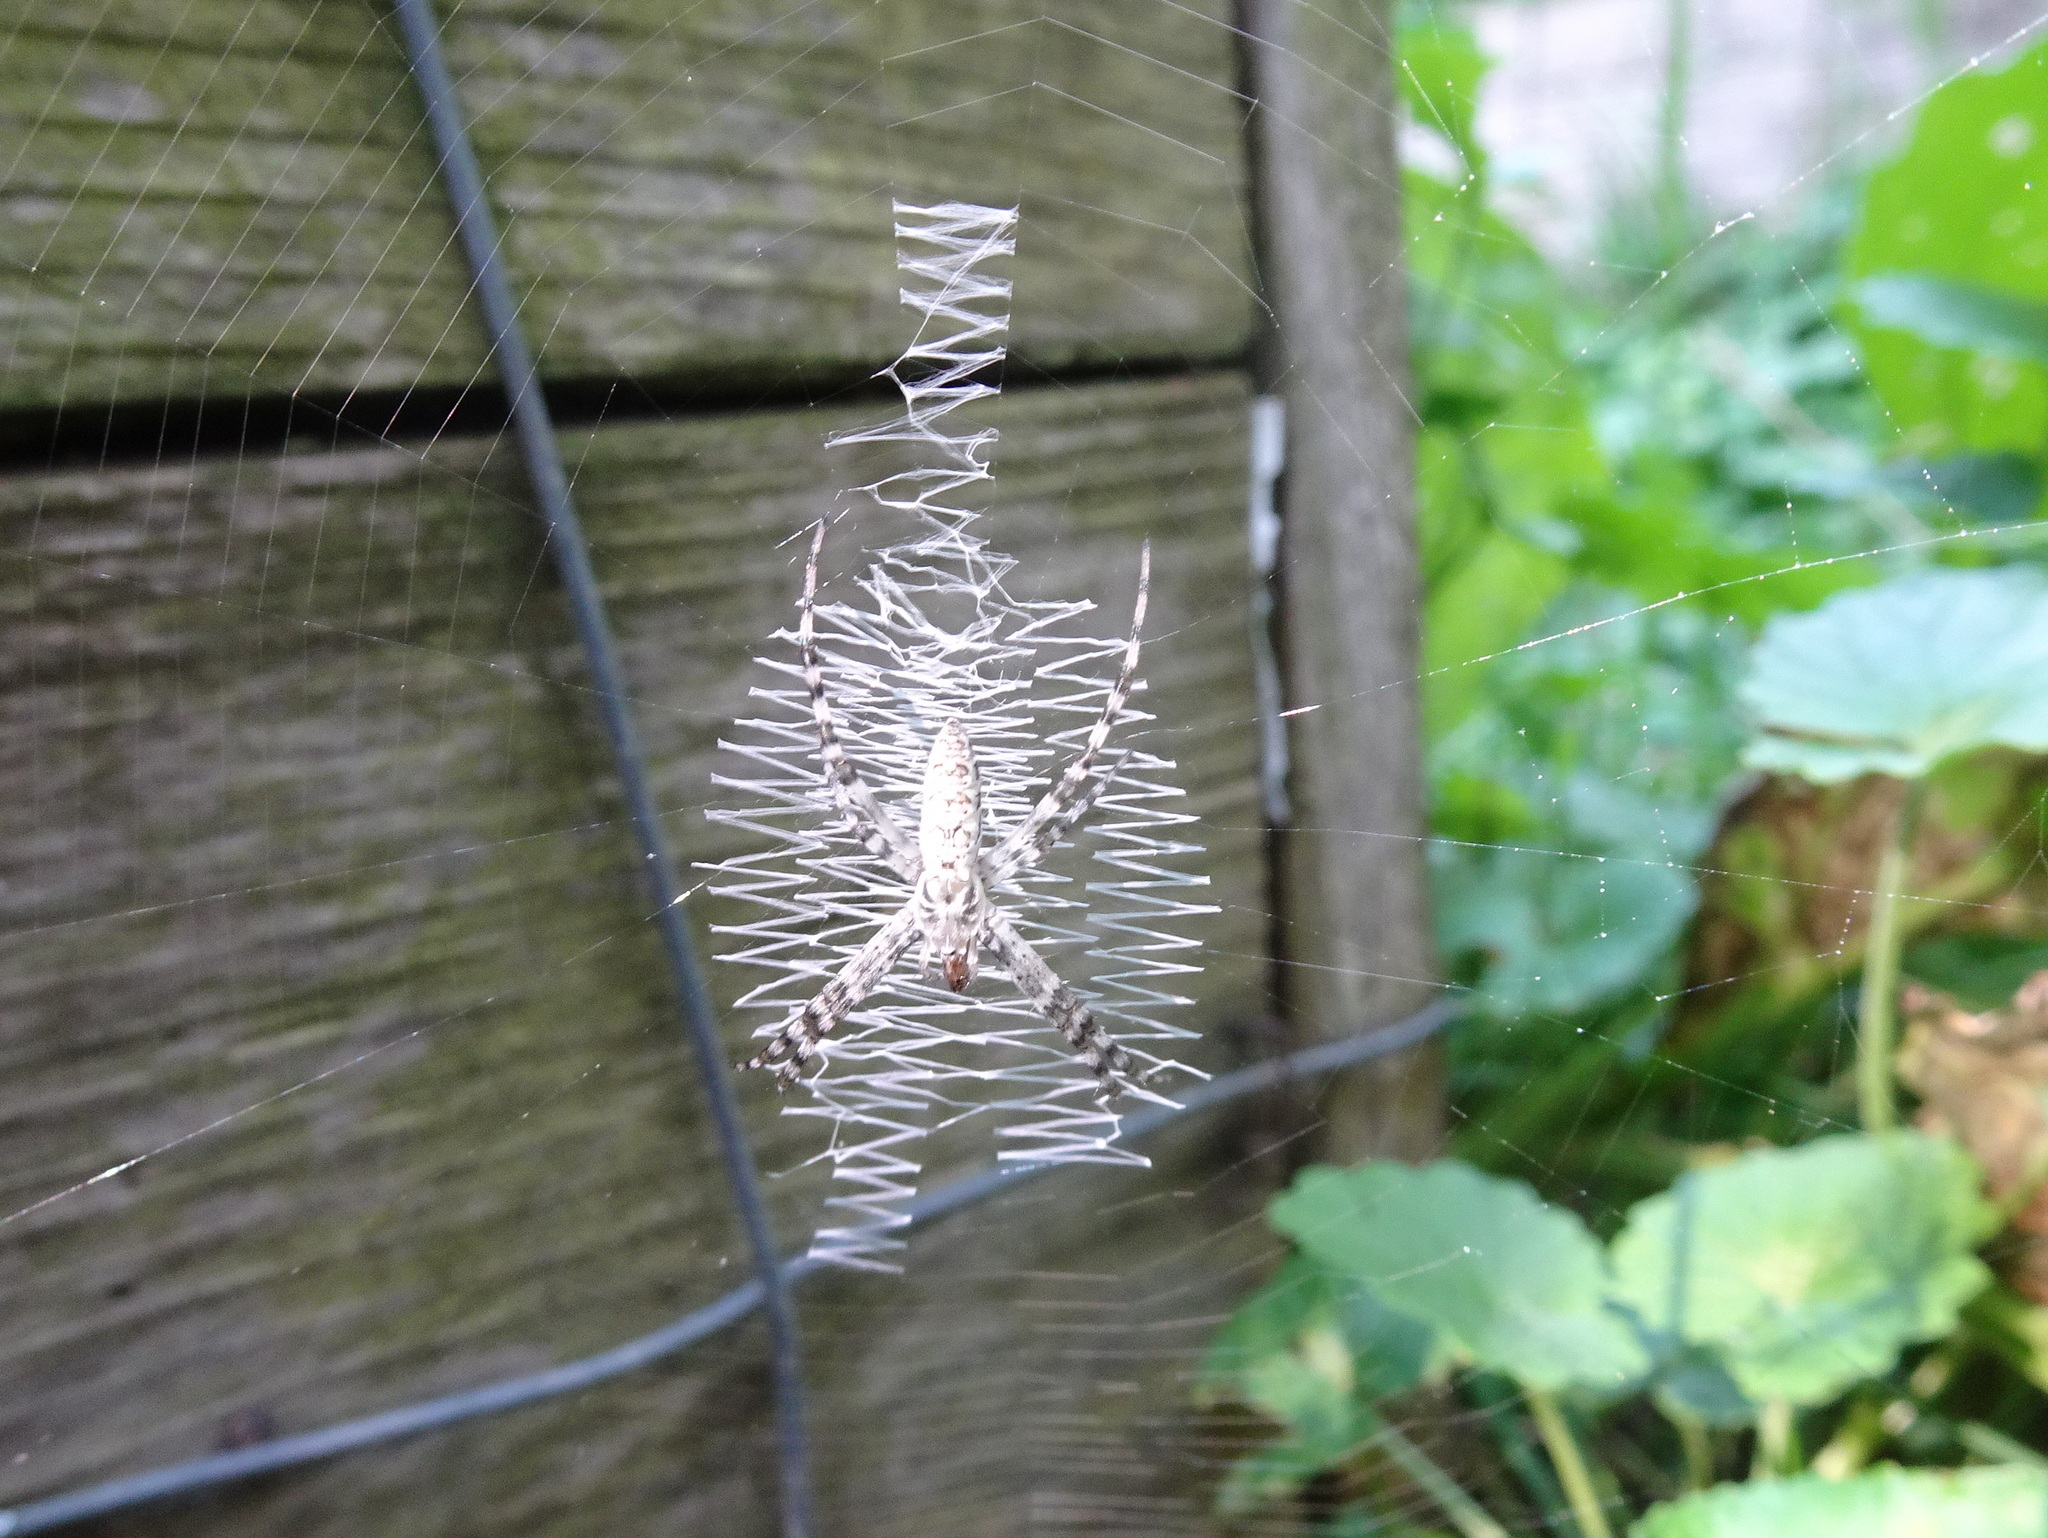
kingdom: Animalia
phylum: Arthropoda
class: Arachnida
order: Araneae
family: Araneidae
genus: Argiope
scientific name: Argiope aurantia
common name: Orb weavers
